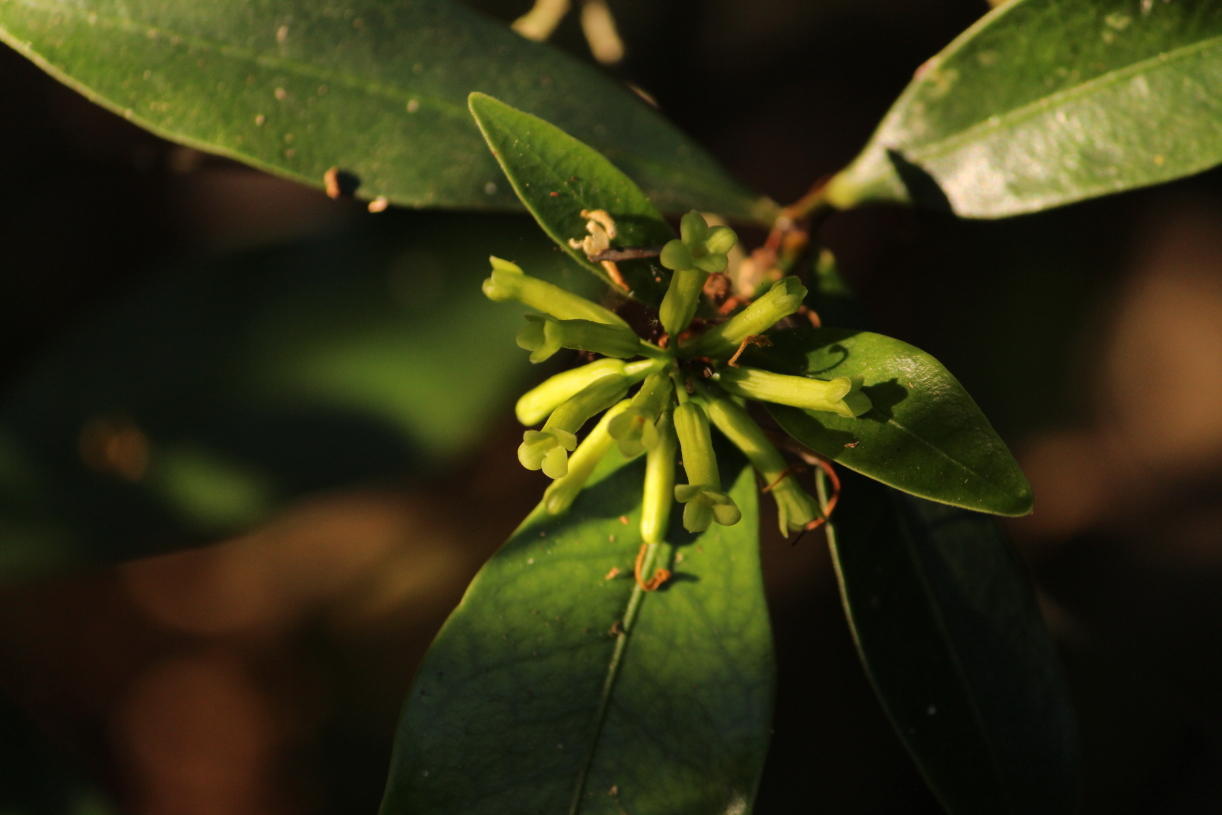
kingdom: Plantae
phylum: Tracheophyta
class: Magnoliopsida
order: Malvales
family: Thymelaeaceae
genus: Peddiea
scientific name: Peddiea africana
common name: Poison olive
